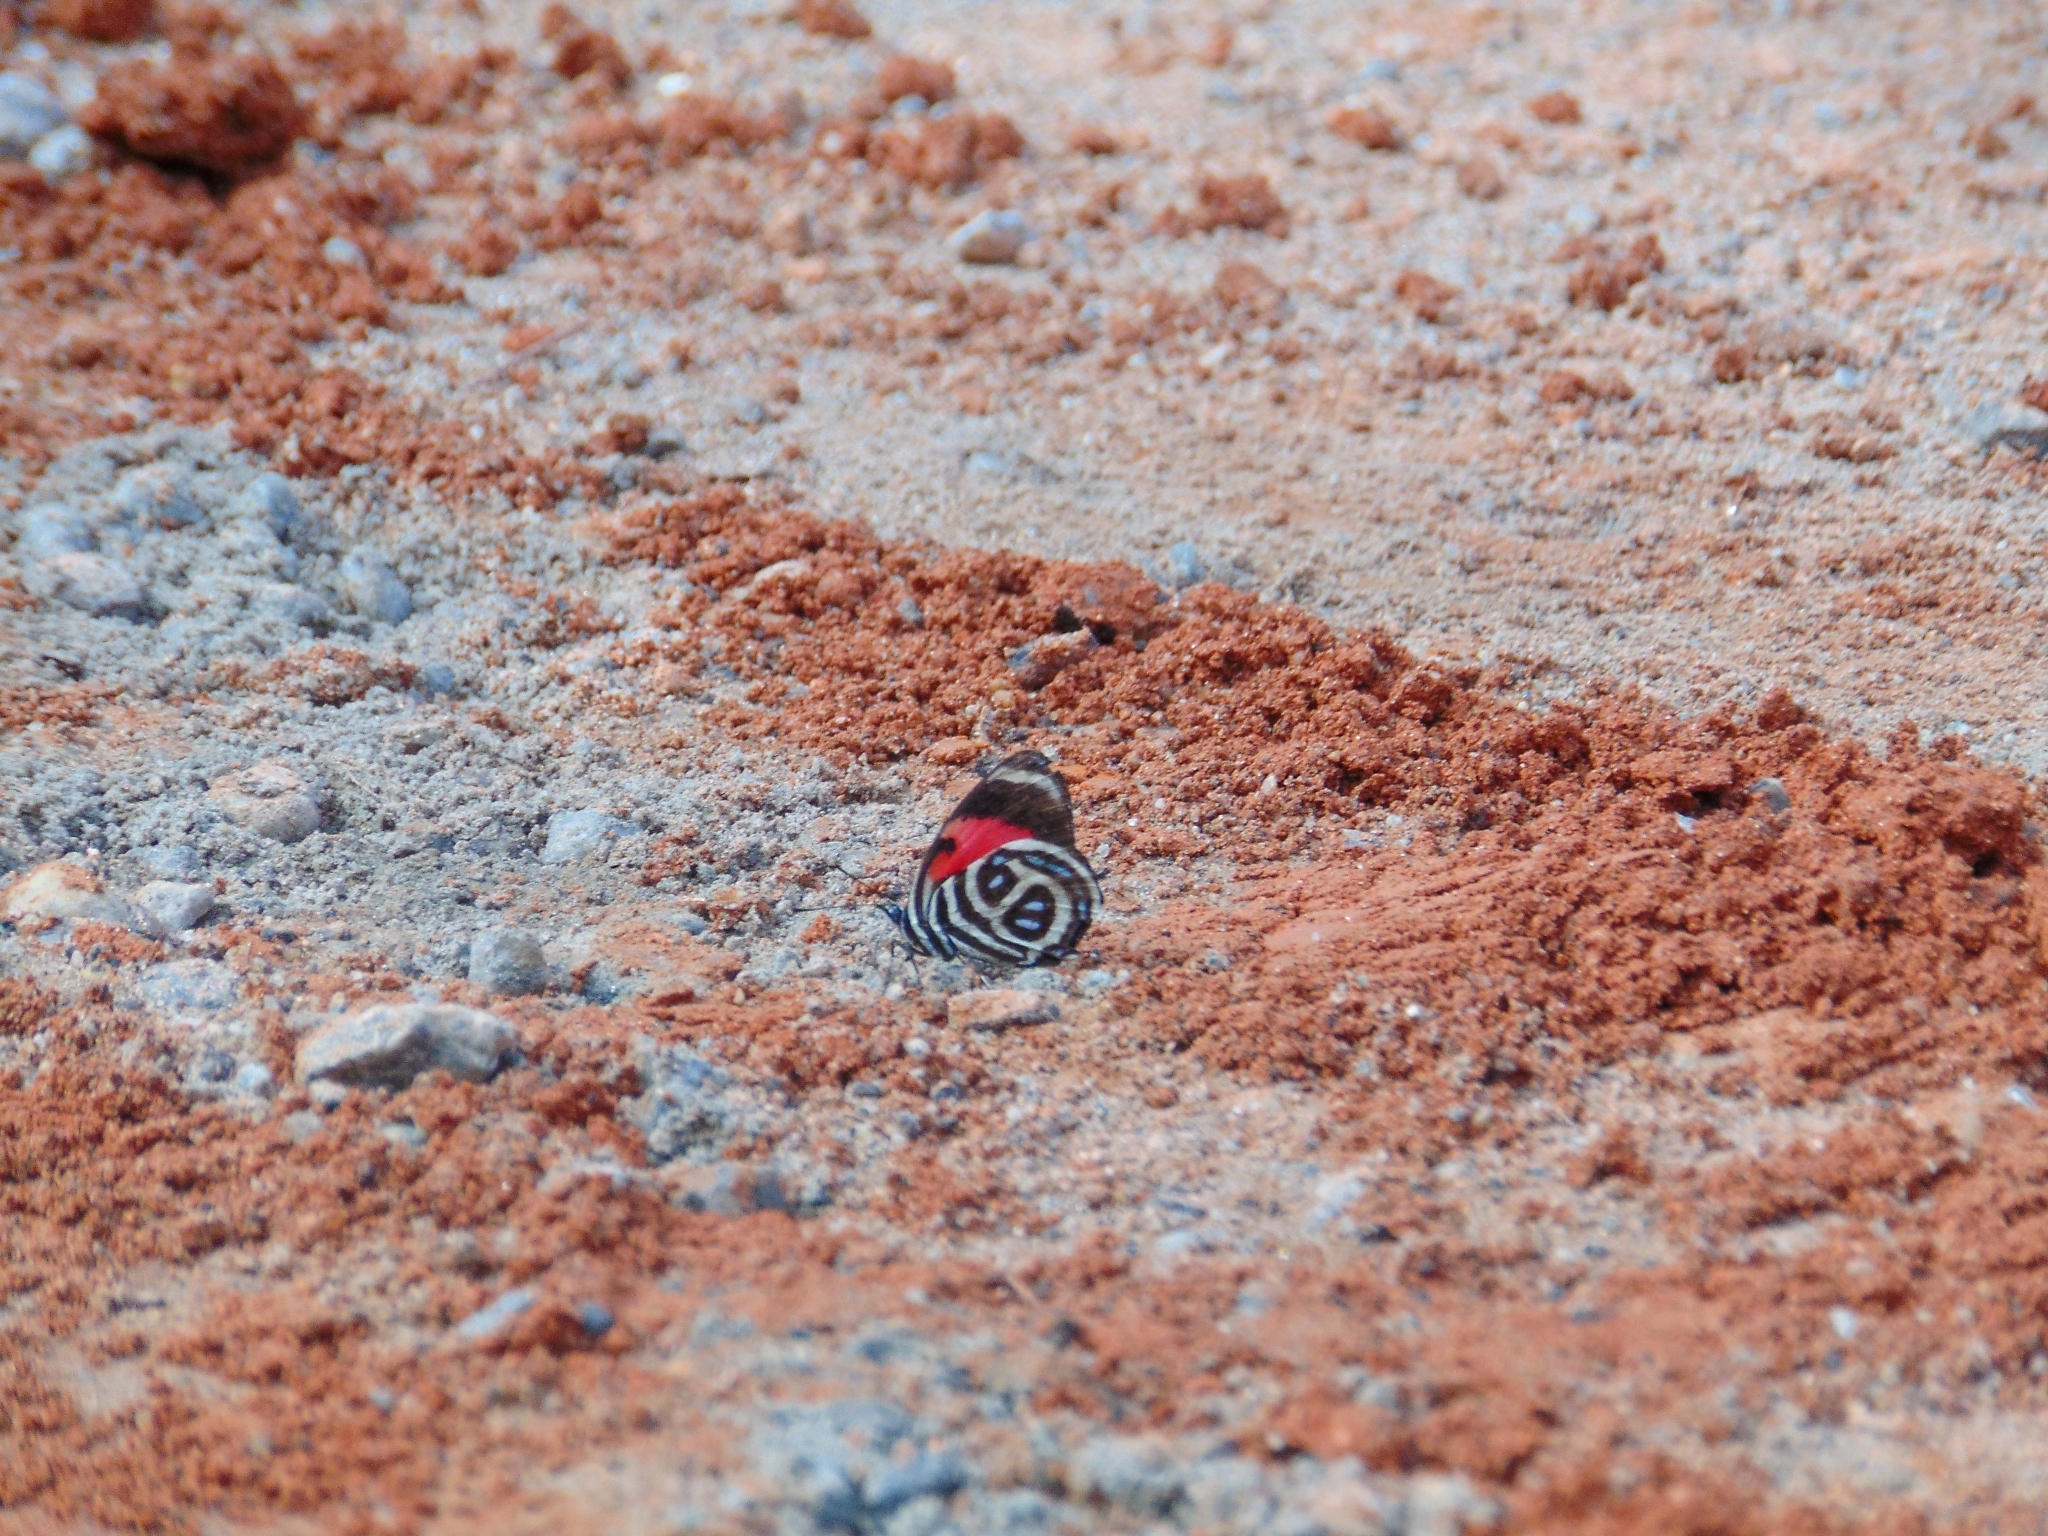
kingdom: Animalia
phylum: Arthropoda
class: Insecta
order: Lepidoptera
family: Nymphalidae
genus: Catagramma
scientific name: Catagramma pyracmon
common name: Google-eyed eighty-eight
